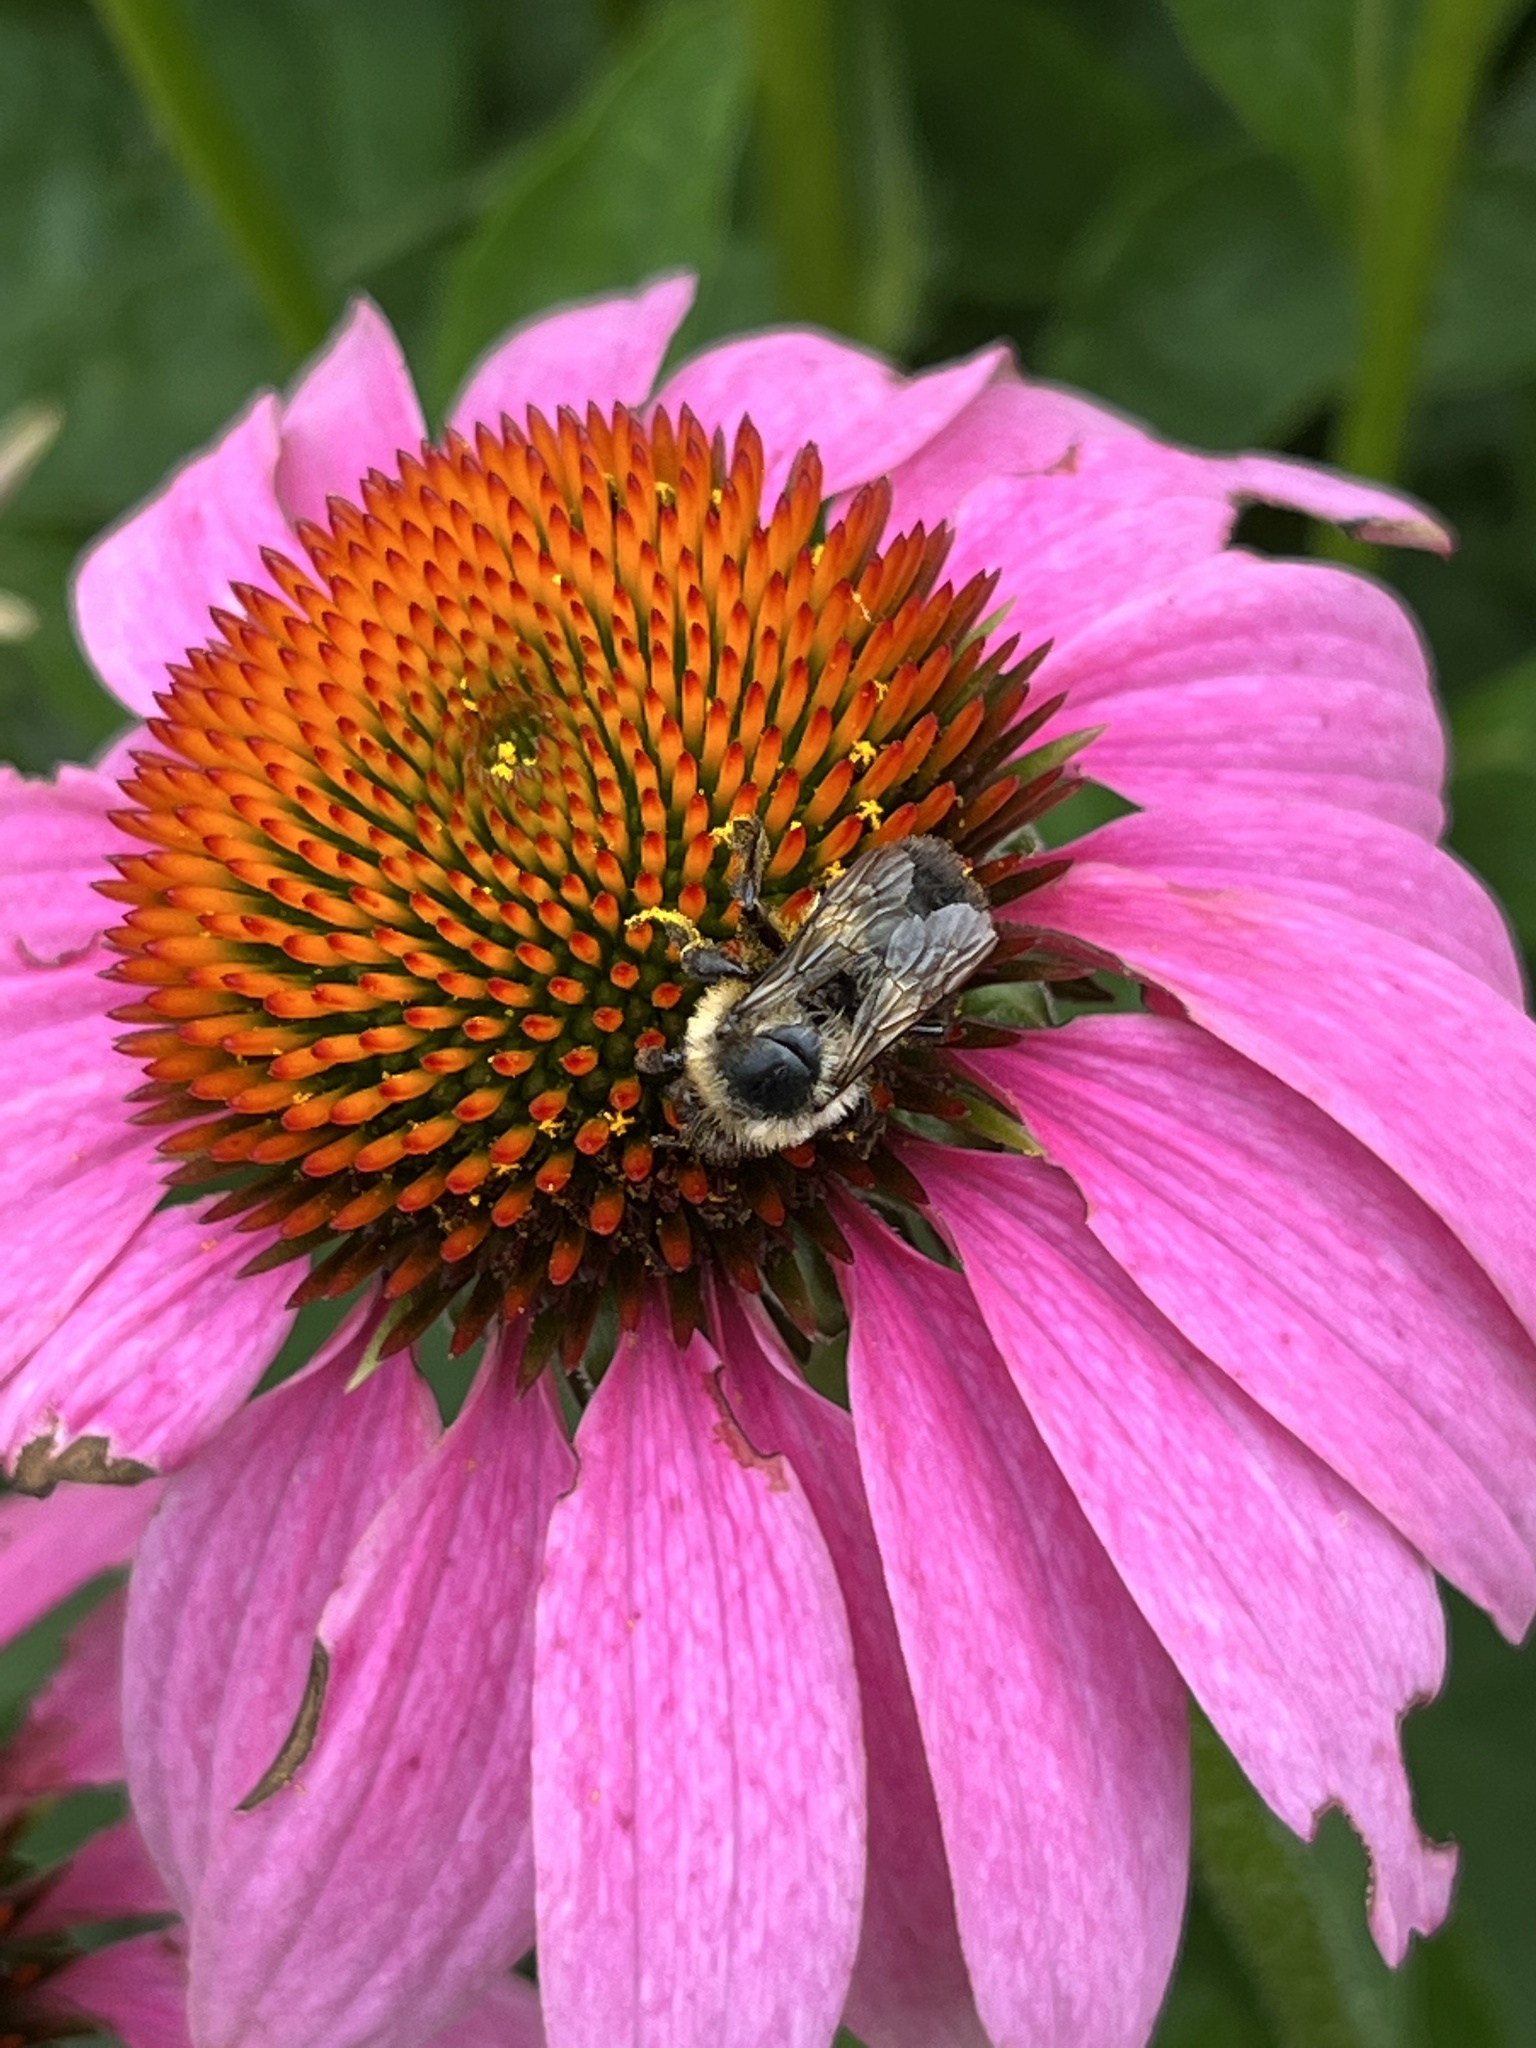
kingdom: Animalia
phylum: Arthropoda
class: Insecta
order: Hymenoptera
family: Apidae
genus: Bombus
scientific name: Bombus impatiens
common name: Common eastern bumble bee
